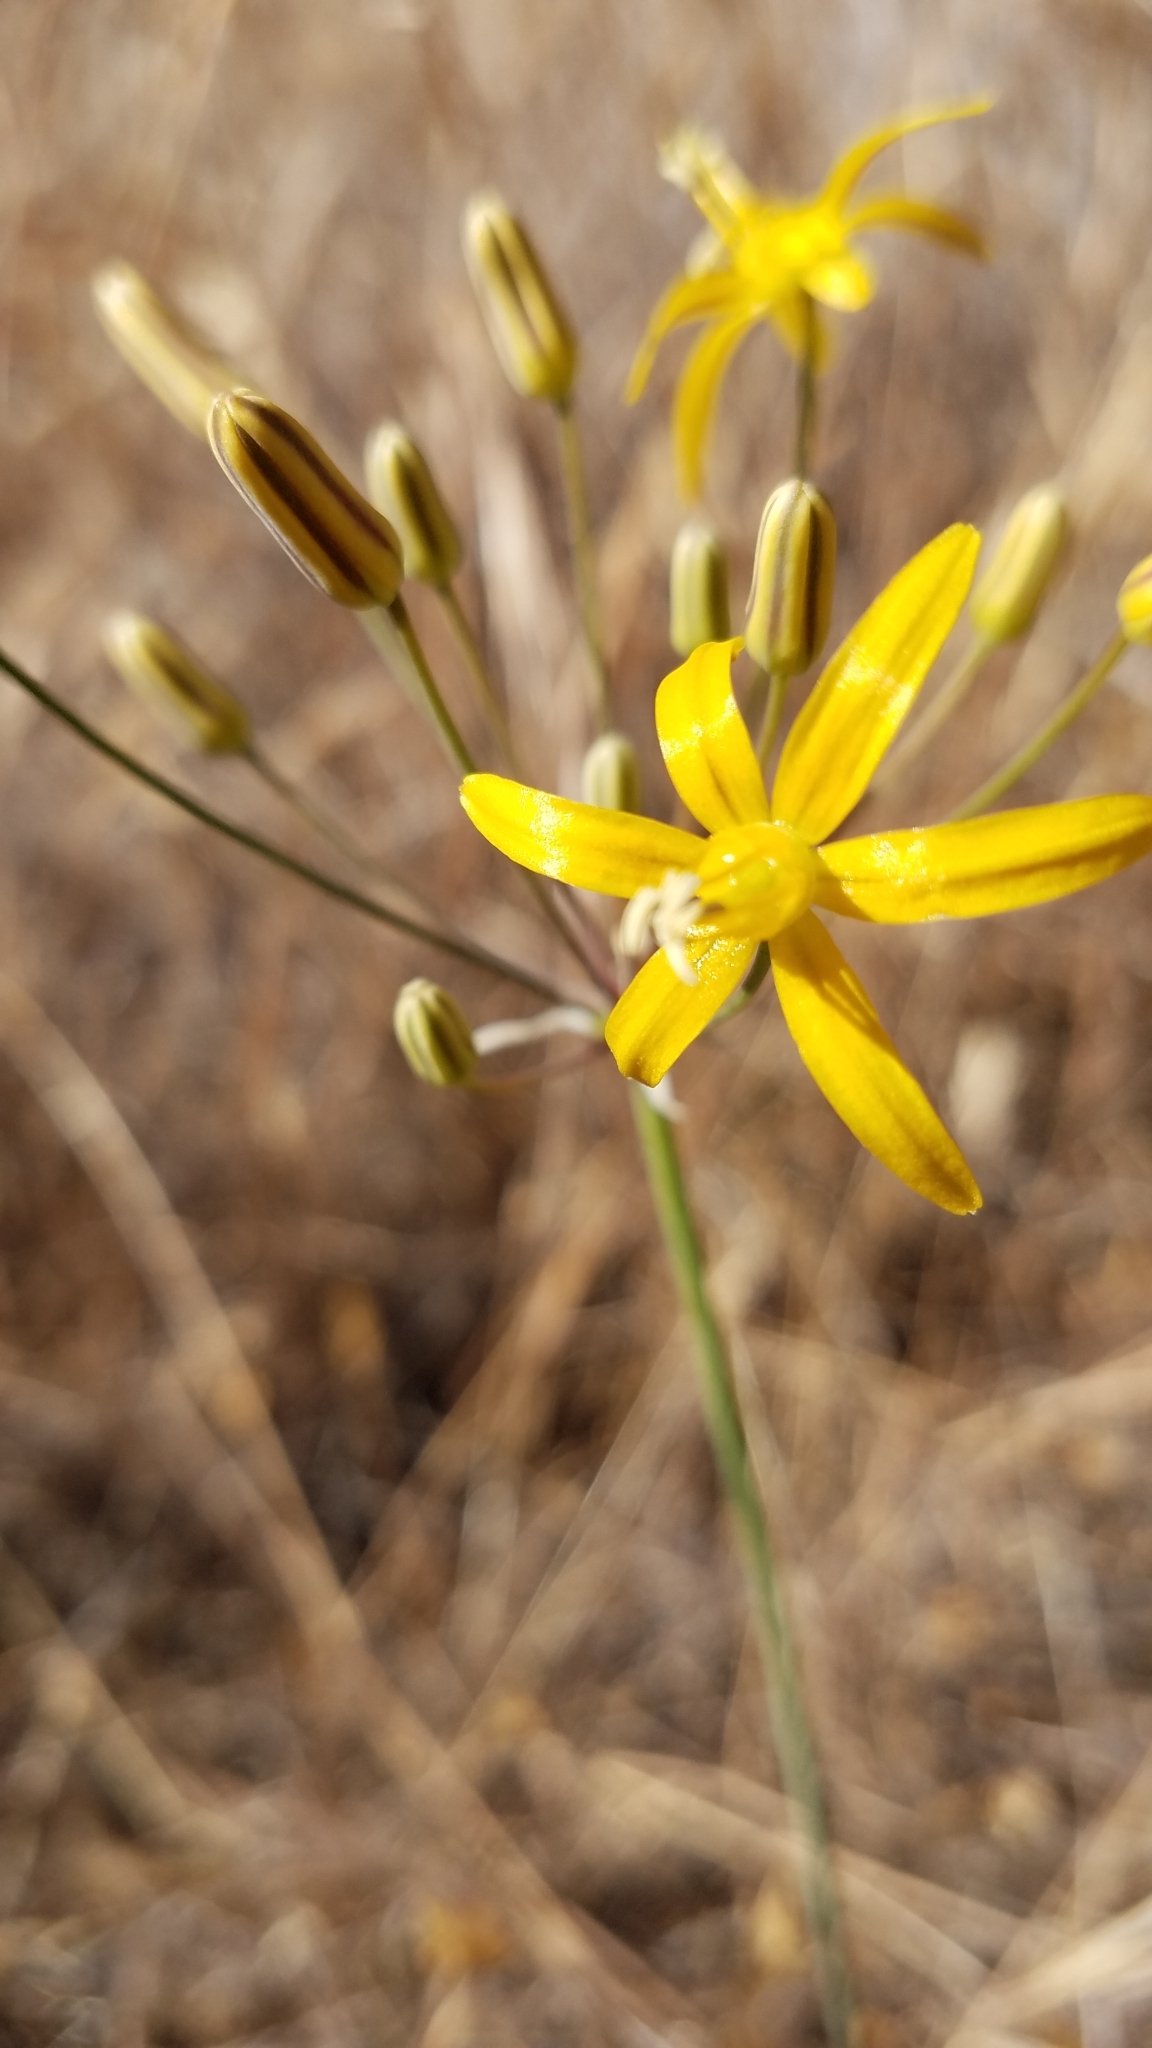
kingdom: Plantae
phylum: Tracheophyta
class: Liliopsida
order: Asparagales
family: Asparagaceae
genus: Bloomeria
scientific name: Bloomeria crocea
